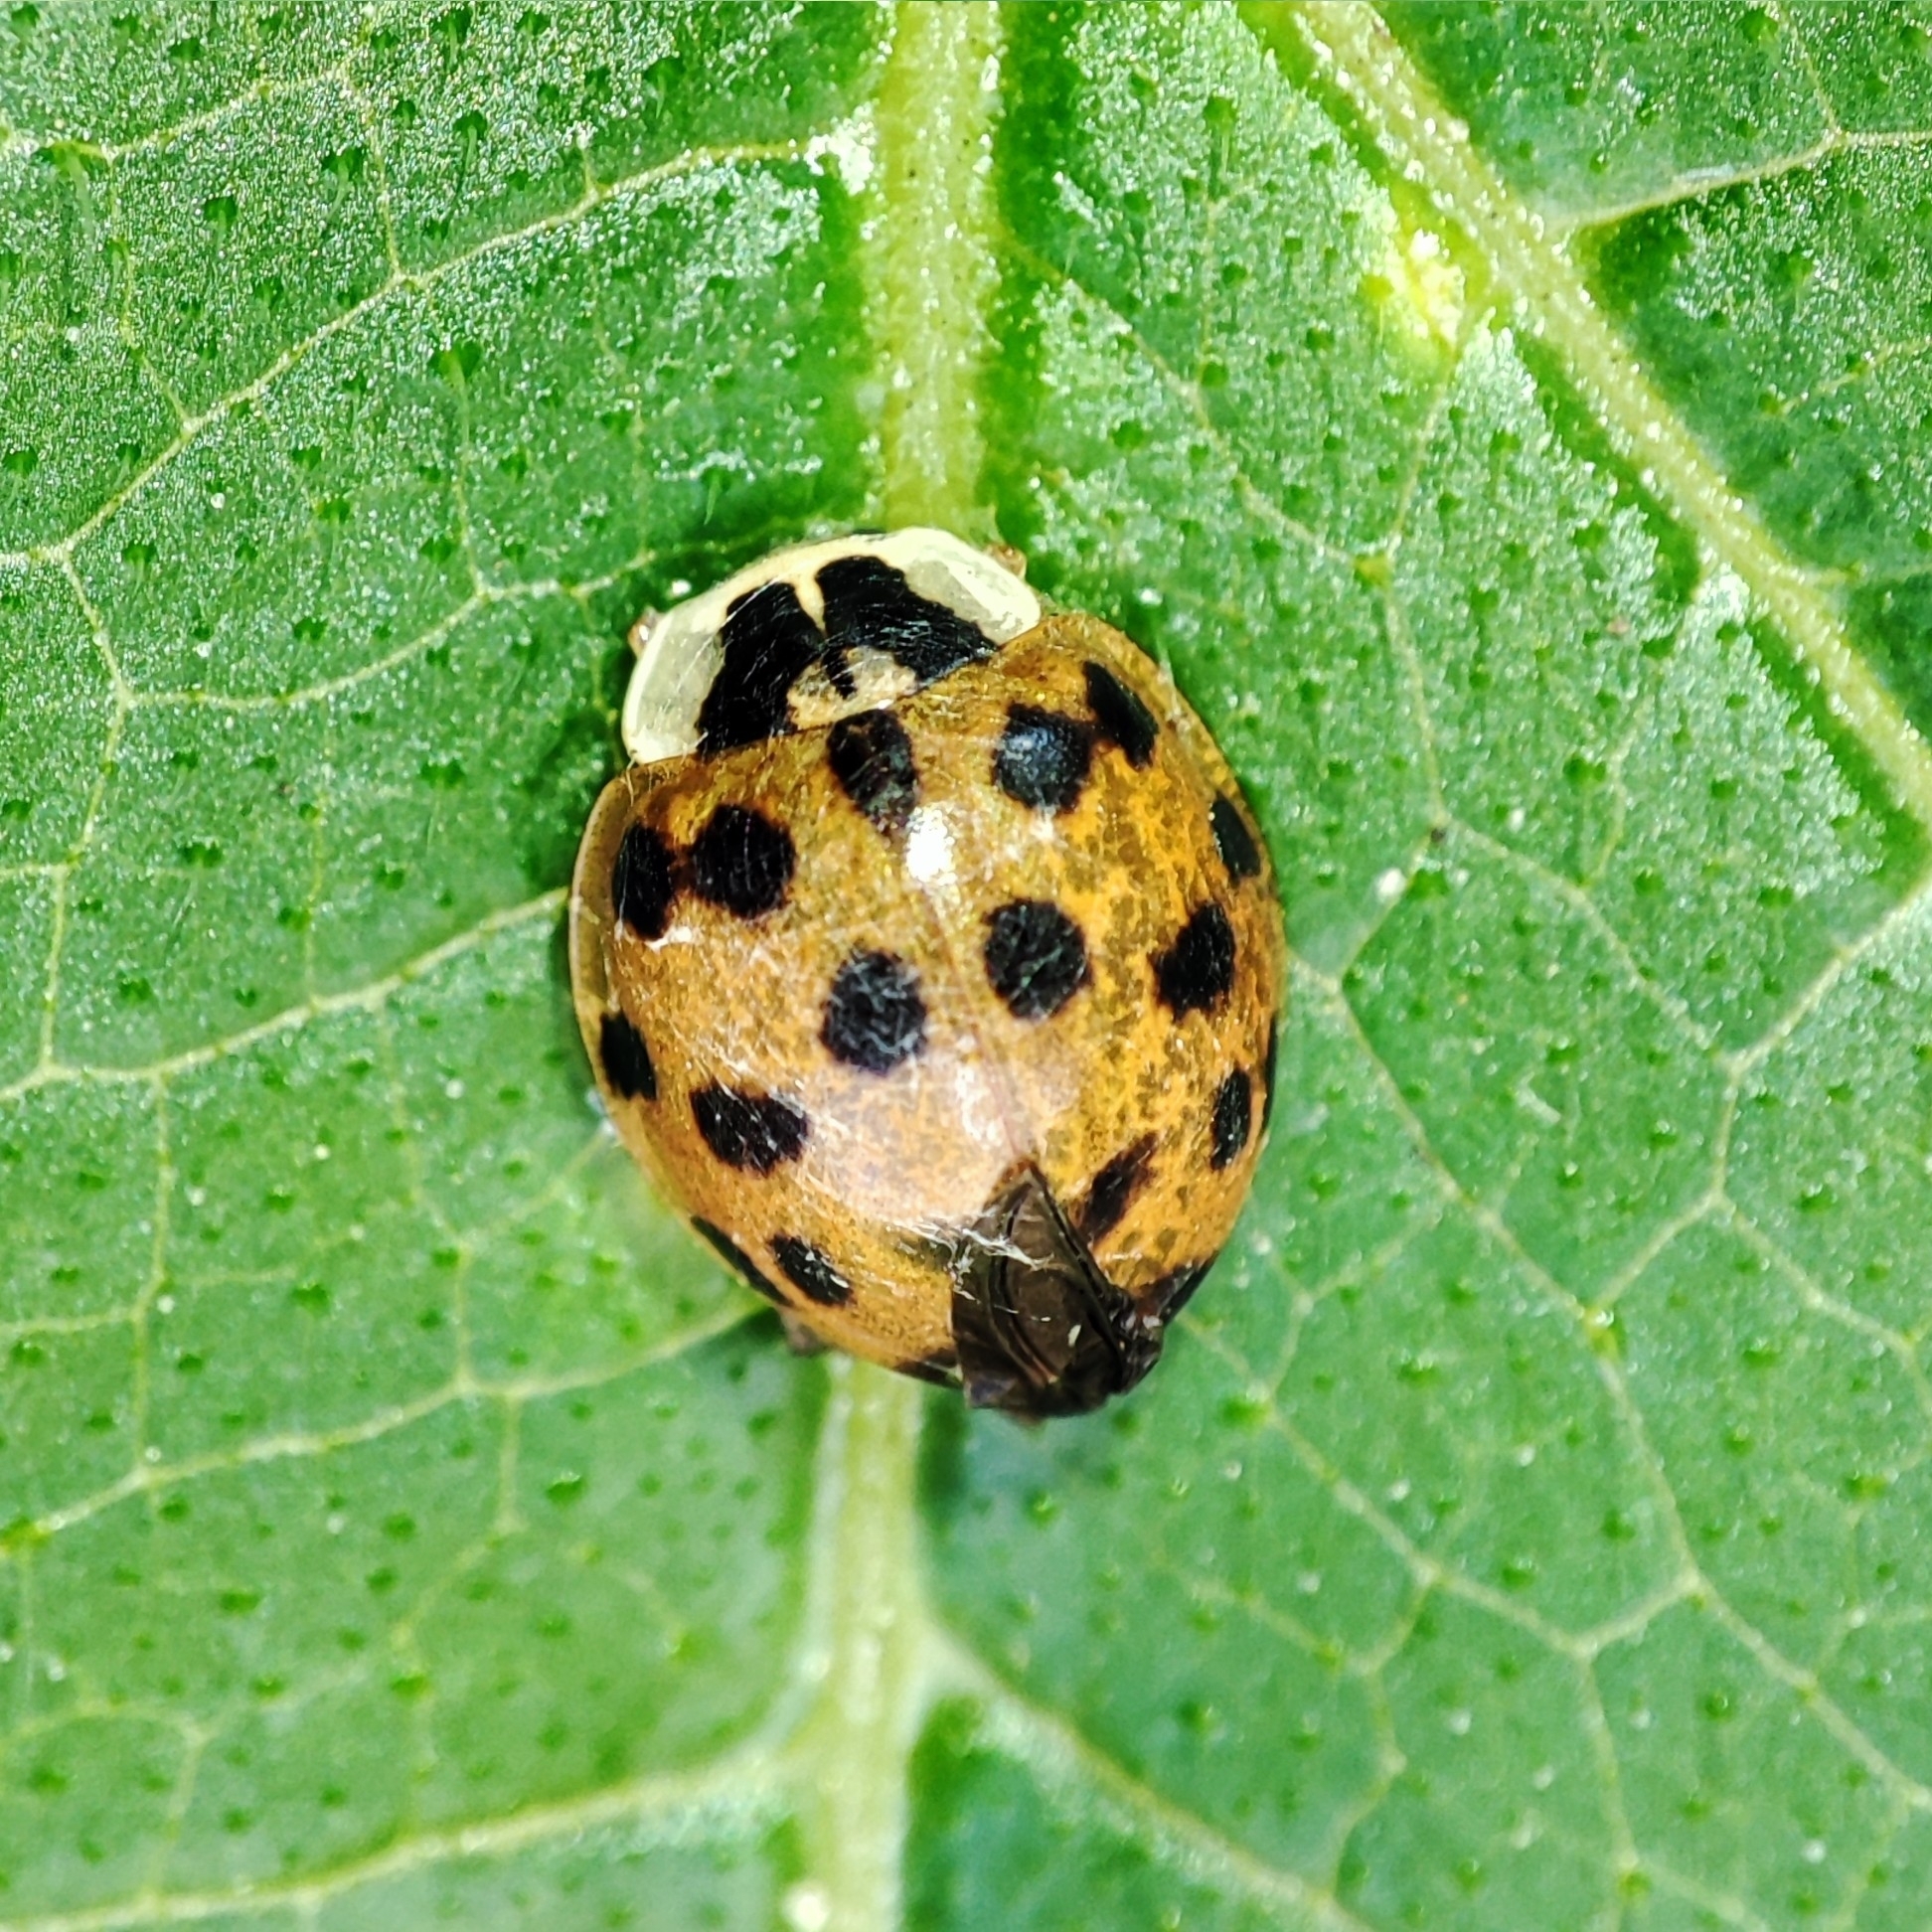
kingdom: Animalia
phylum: Arthropoda
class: Insecta
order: Coleoptera
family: Coccinellidae
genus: Harmonia
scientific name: Harmonia axyridis
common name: Harlequin ladybird
